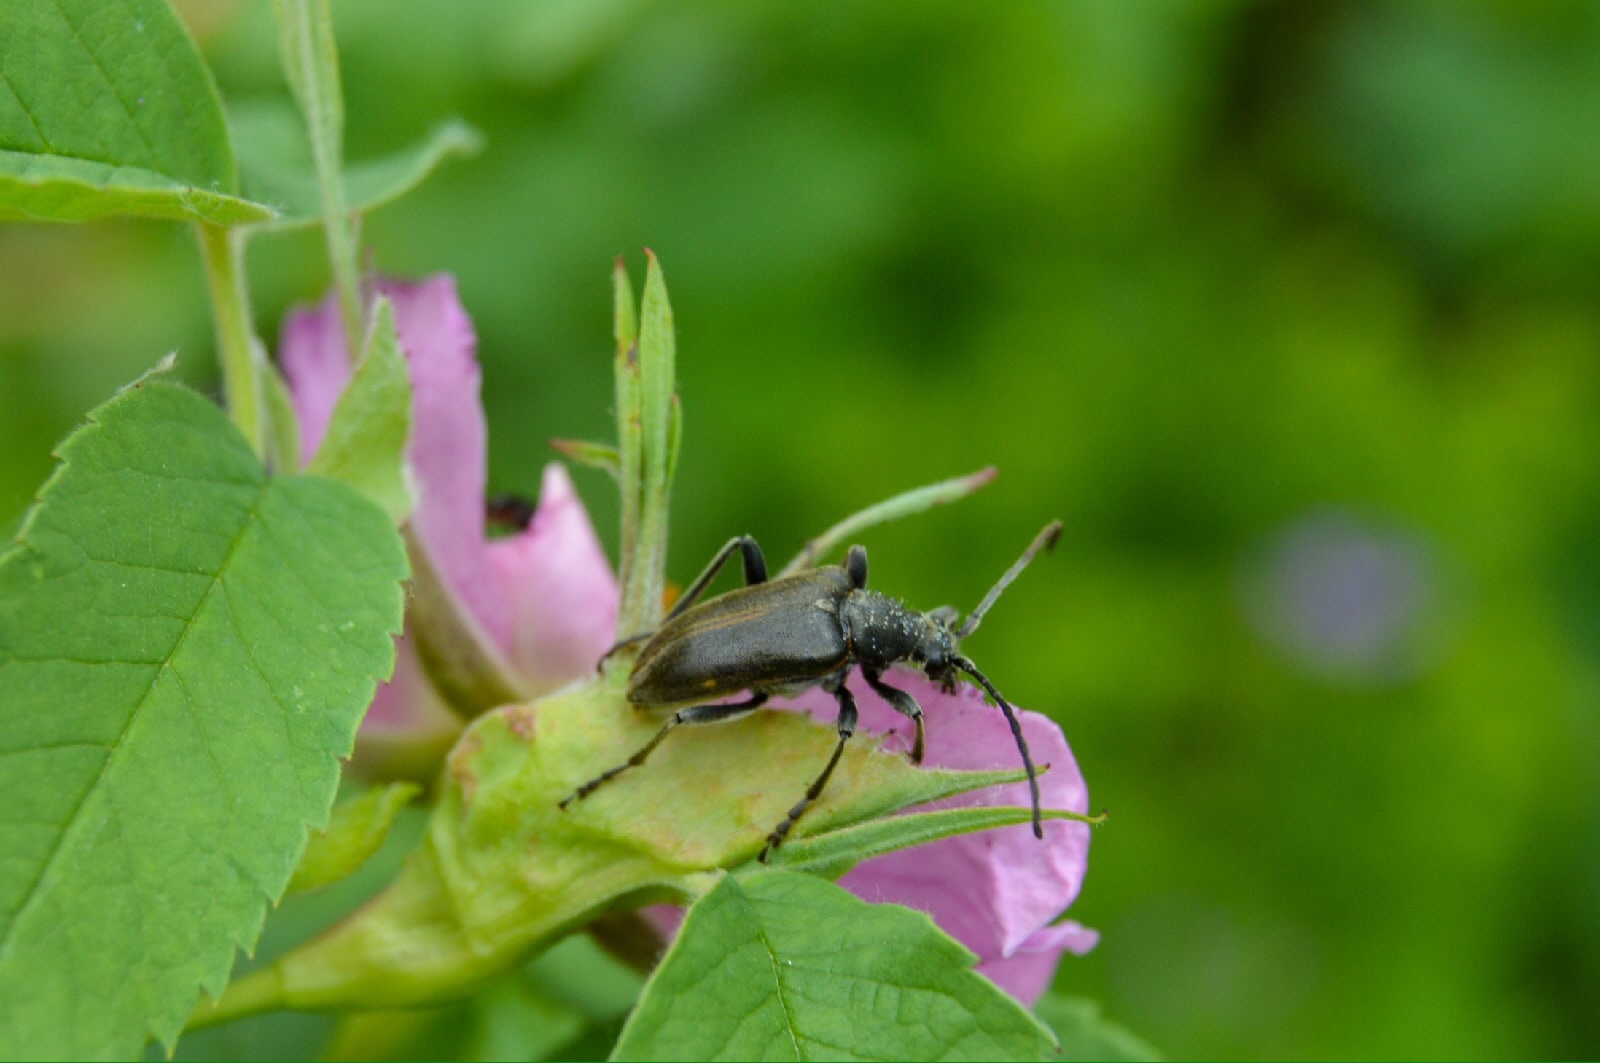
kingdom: Animalia
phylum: Arthropoda
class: Insecta
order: Coleoptera
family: Cerambycidae
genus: Brachyta
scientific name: Brachyta interrogationis
